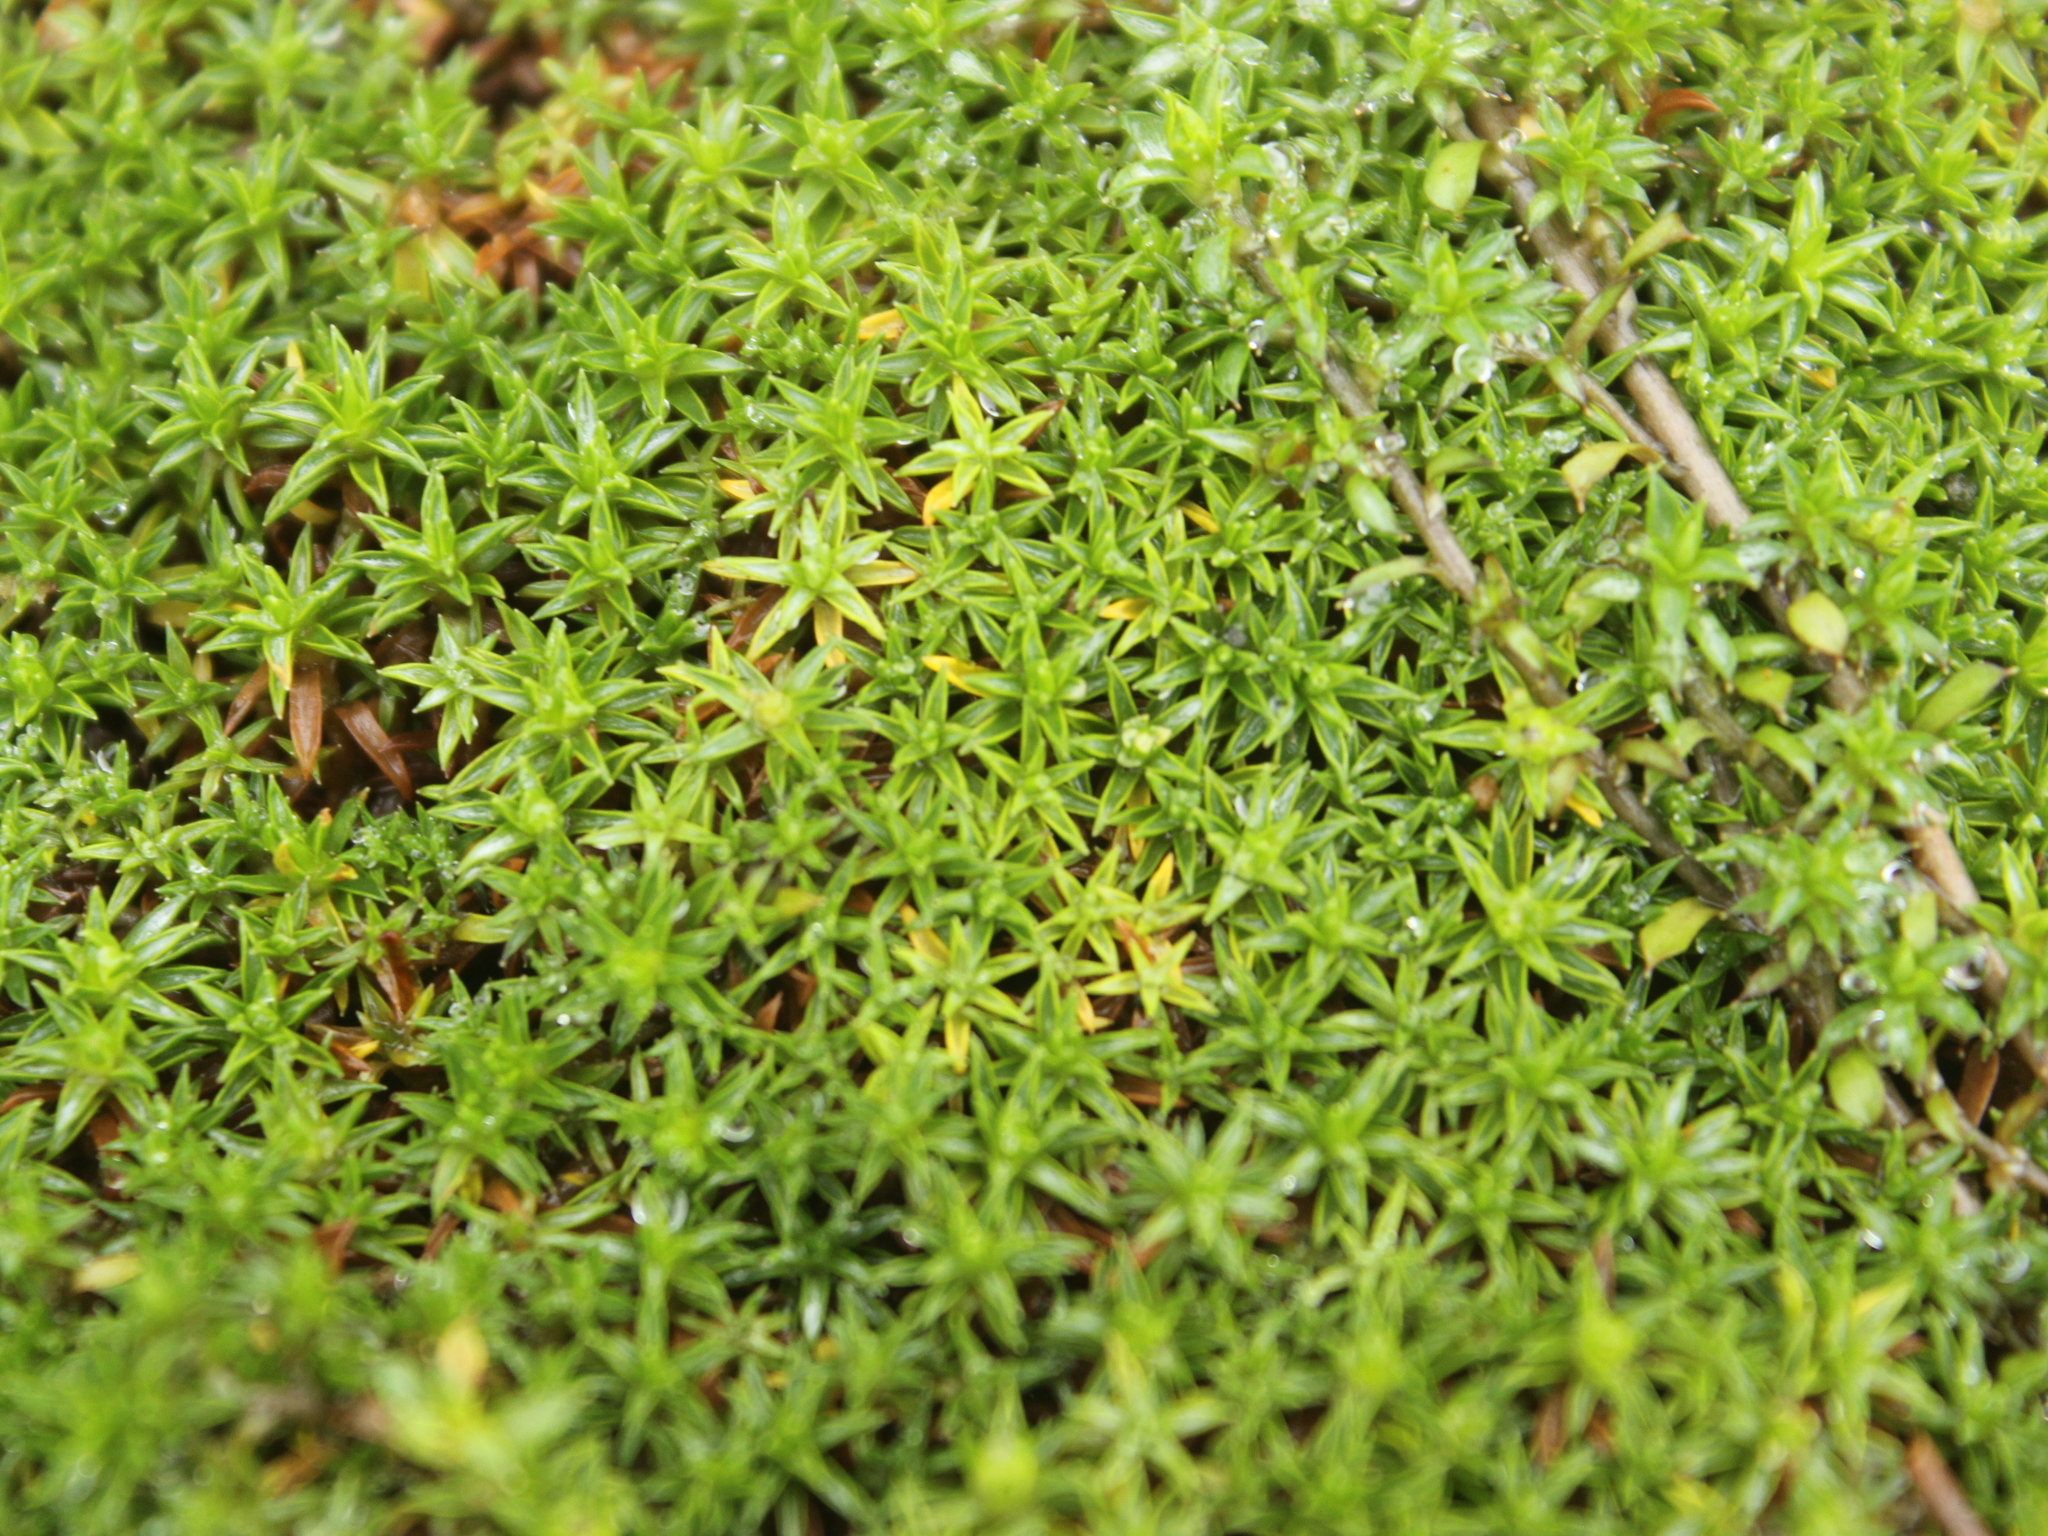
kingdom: Plantae
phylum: Tracheophyta
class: Magnoliopsida
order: Asterales
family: Asteraceae
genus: Raoulia
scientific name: Raoulia tenuicaulis
